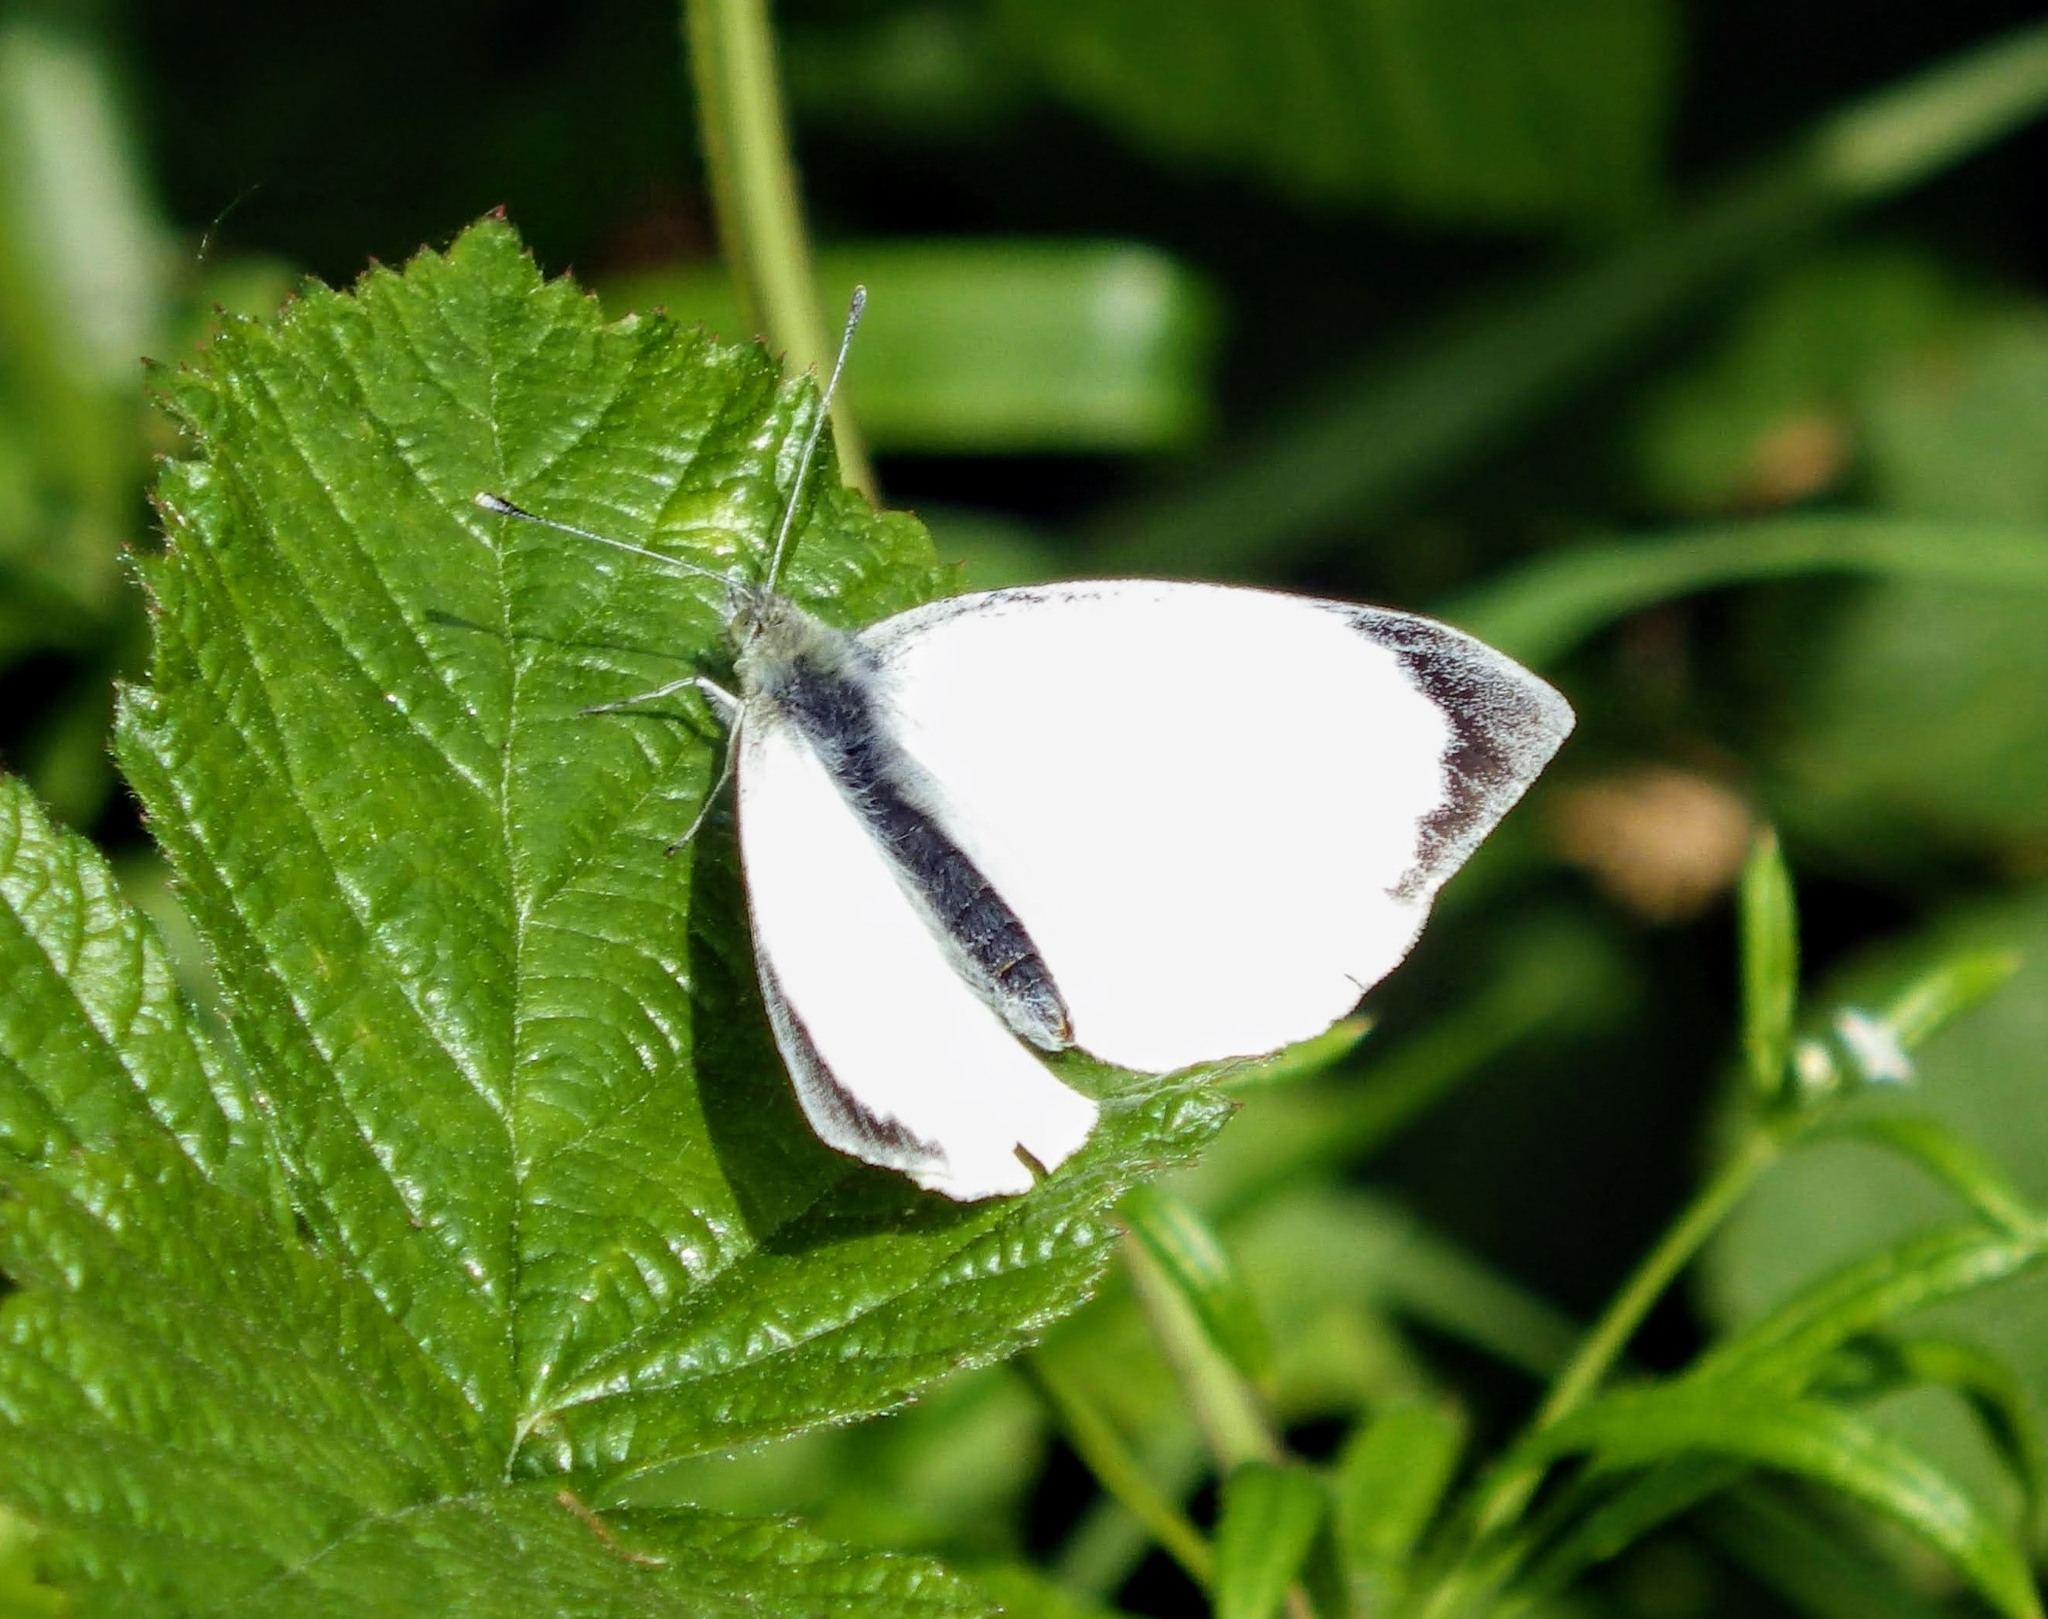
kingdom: Animalia
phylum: Arthropoda
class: Insecta
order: Lepidoptera
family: Pieridae
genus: Pieris
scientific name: Pieris brassicae
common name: Large white
